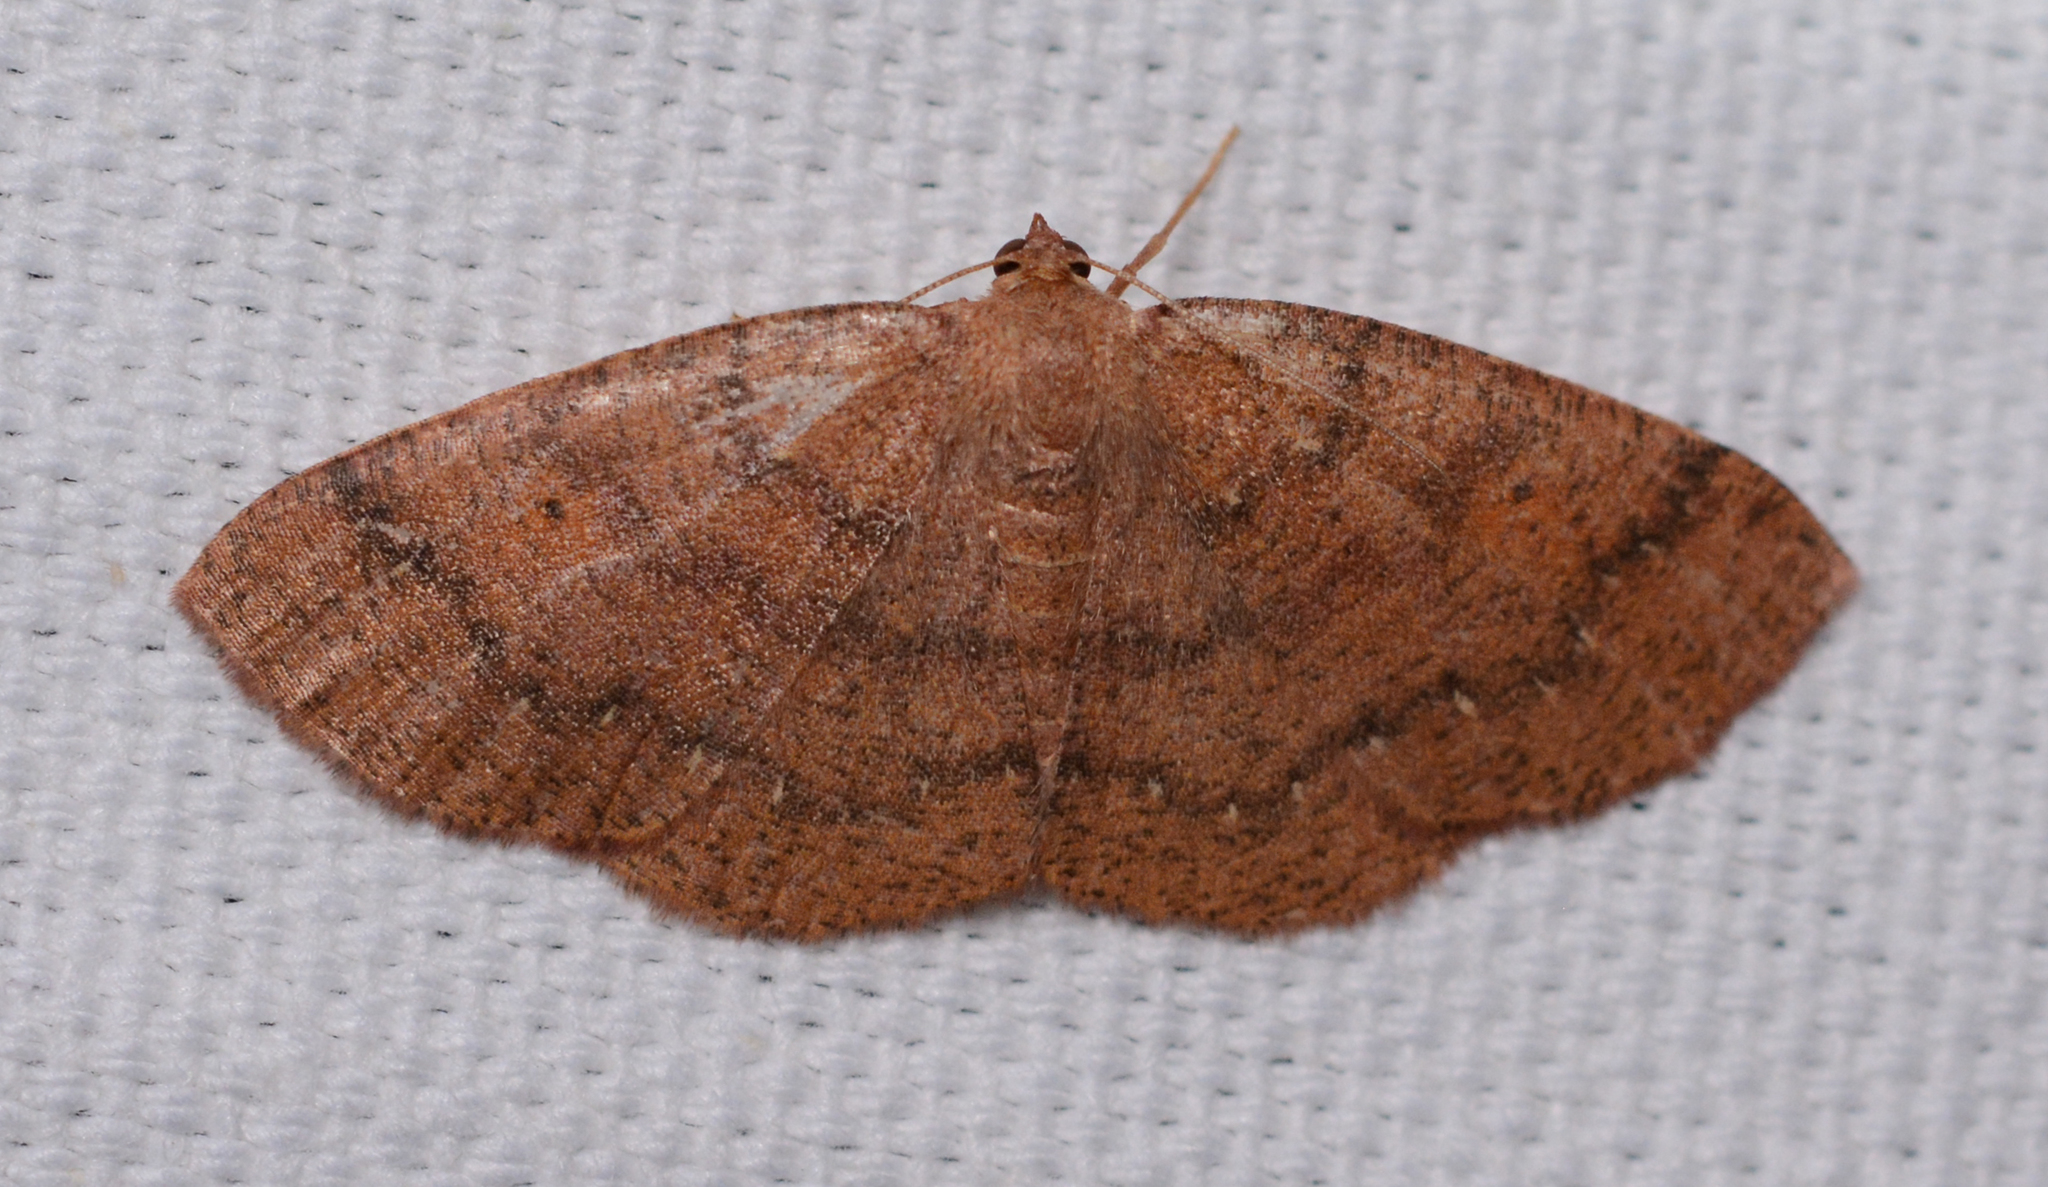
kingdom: Animalia
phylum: Arthropoda
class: Insecta
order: Lepidoptera
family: Geometridae
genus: Ilexia
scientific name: Ilexia intractata
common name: Black-dotted ruddy moth
